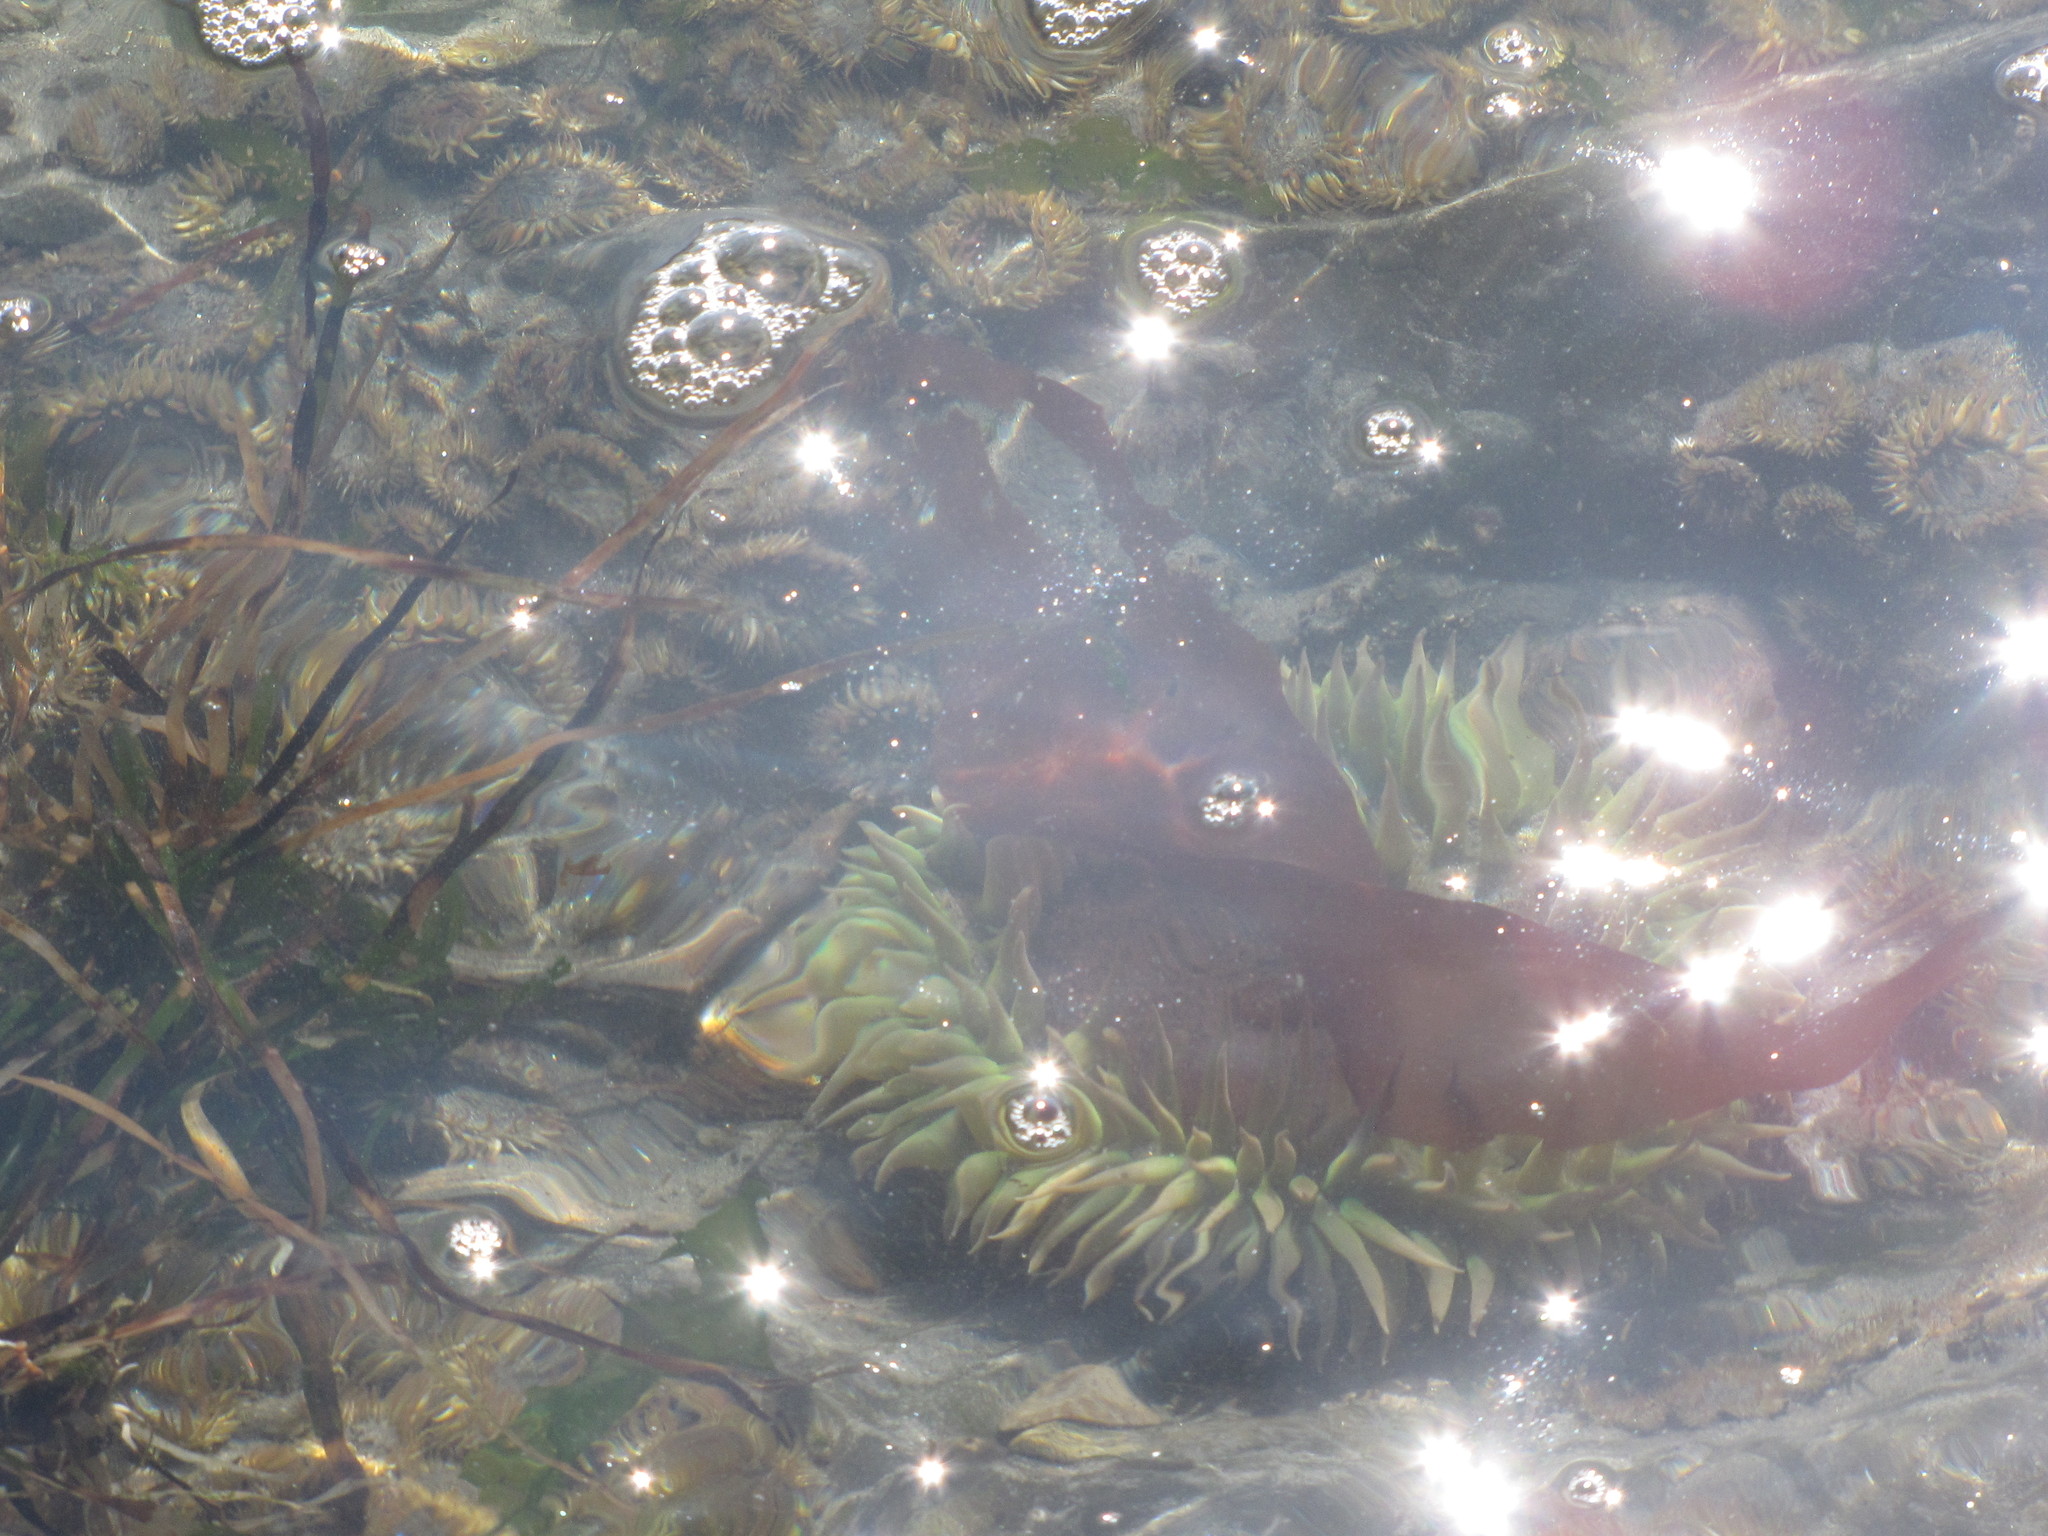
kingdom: Animalia
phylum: Cnidaria
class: Anthozoa
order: Actiniaria
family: Actiniidae
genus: Anthopleura
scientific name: Anthopleura xanthogrammica
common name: Giant green anemone
